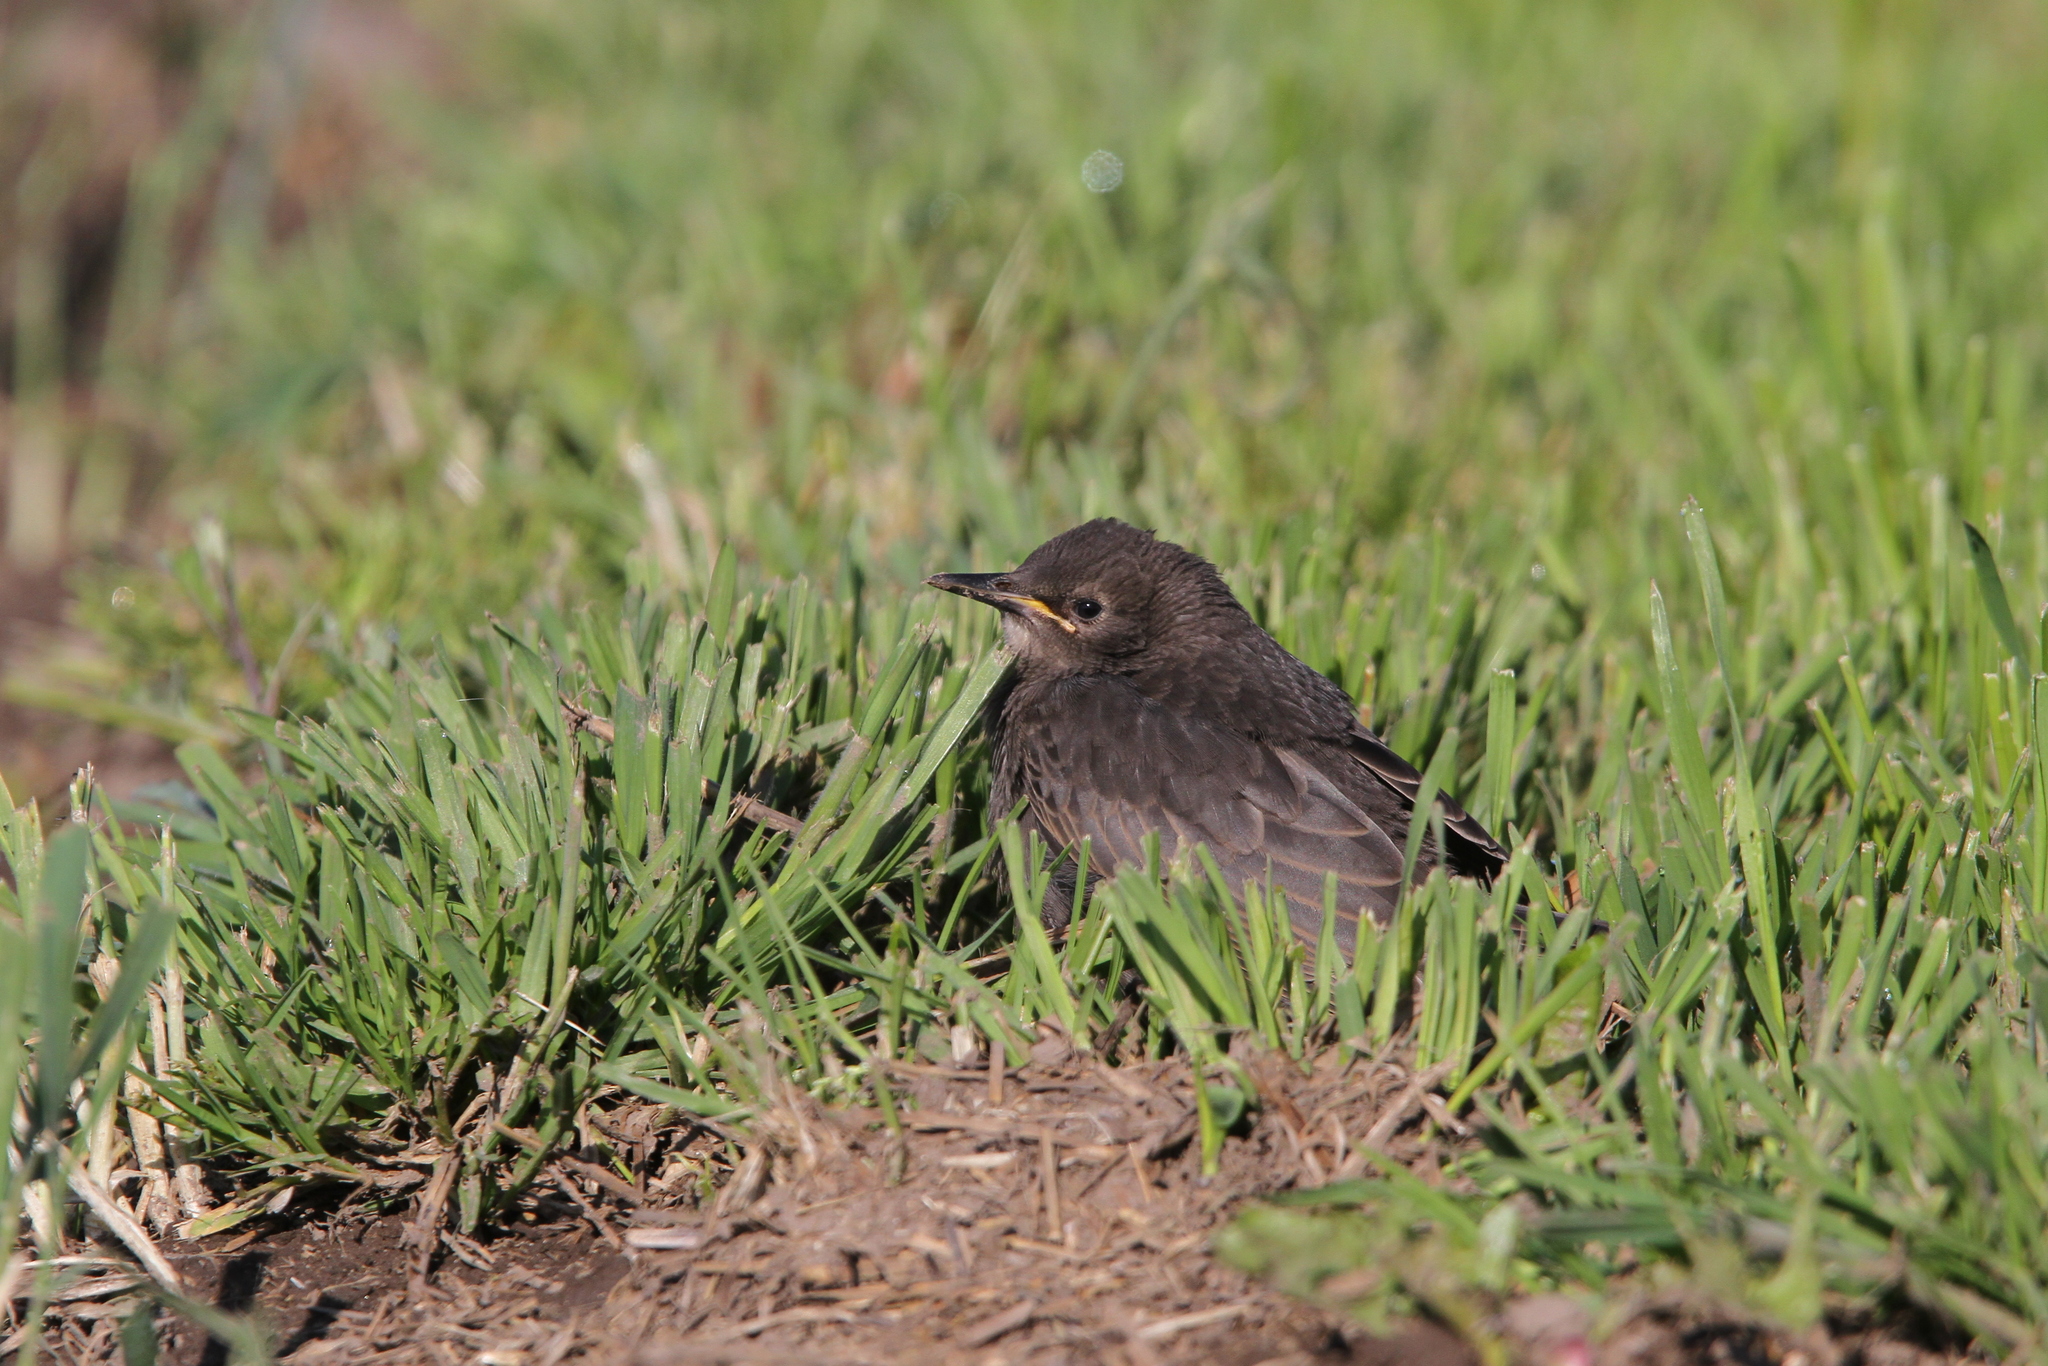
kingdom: Animalia
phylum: Chordata
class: Aves
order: Passeriformes
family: Sturnidae
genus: Sturnus
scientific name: Sturnus vulgaris
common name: Common starling
